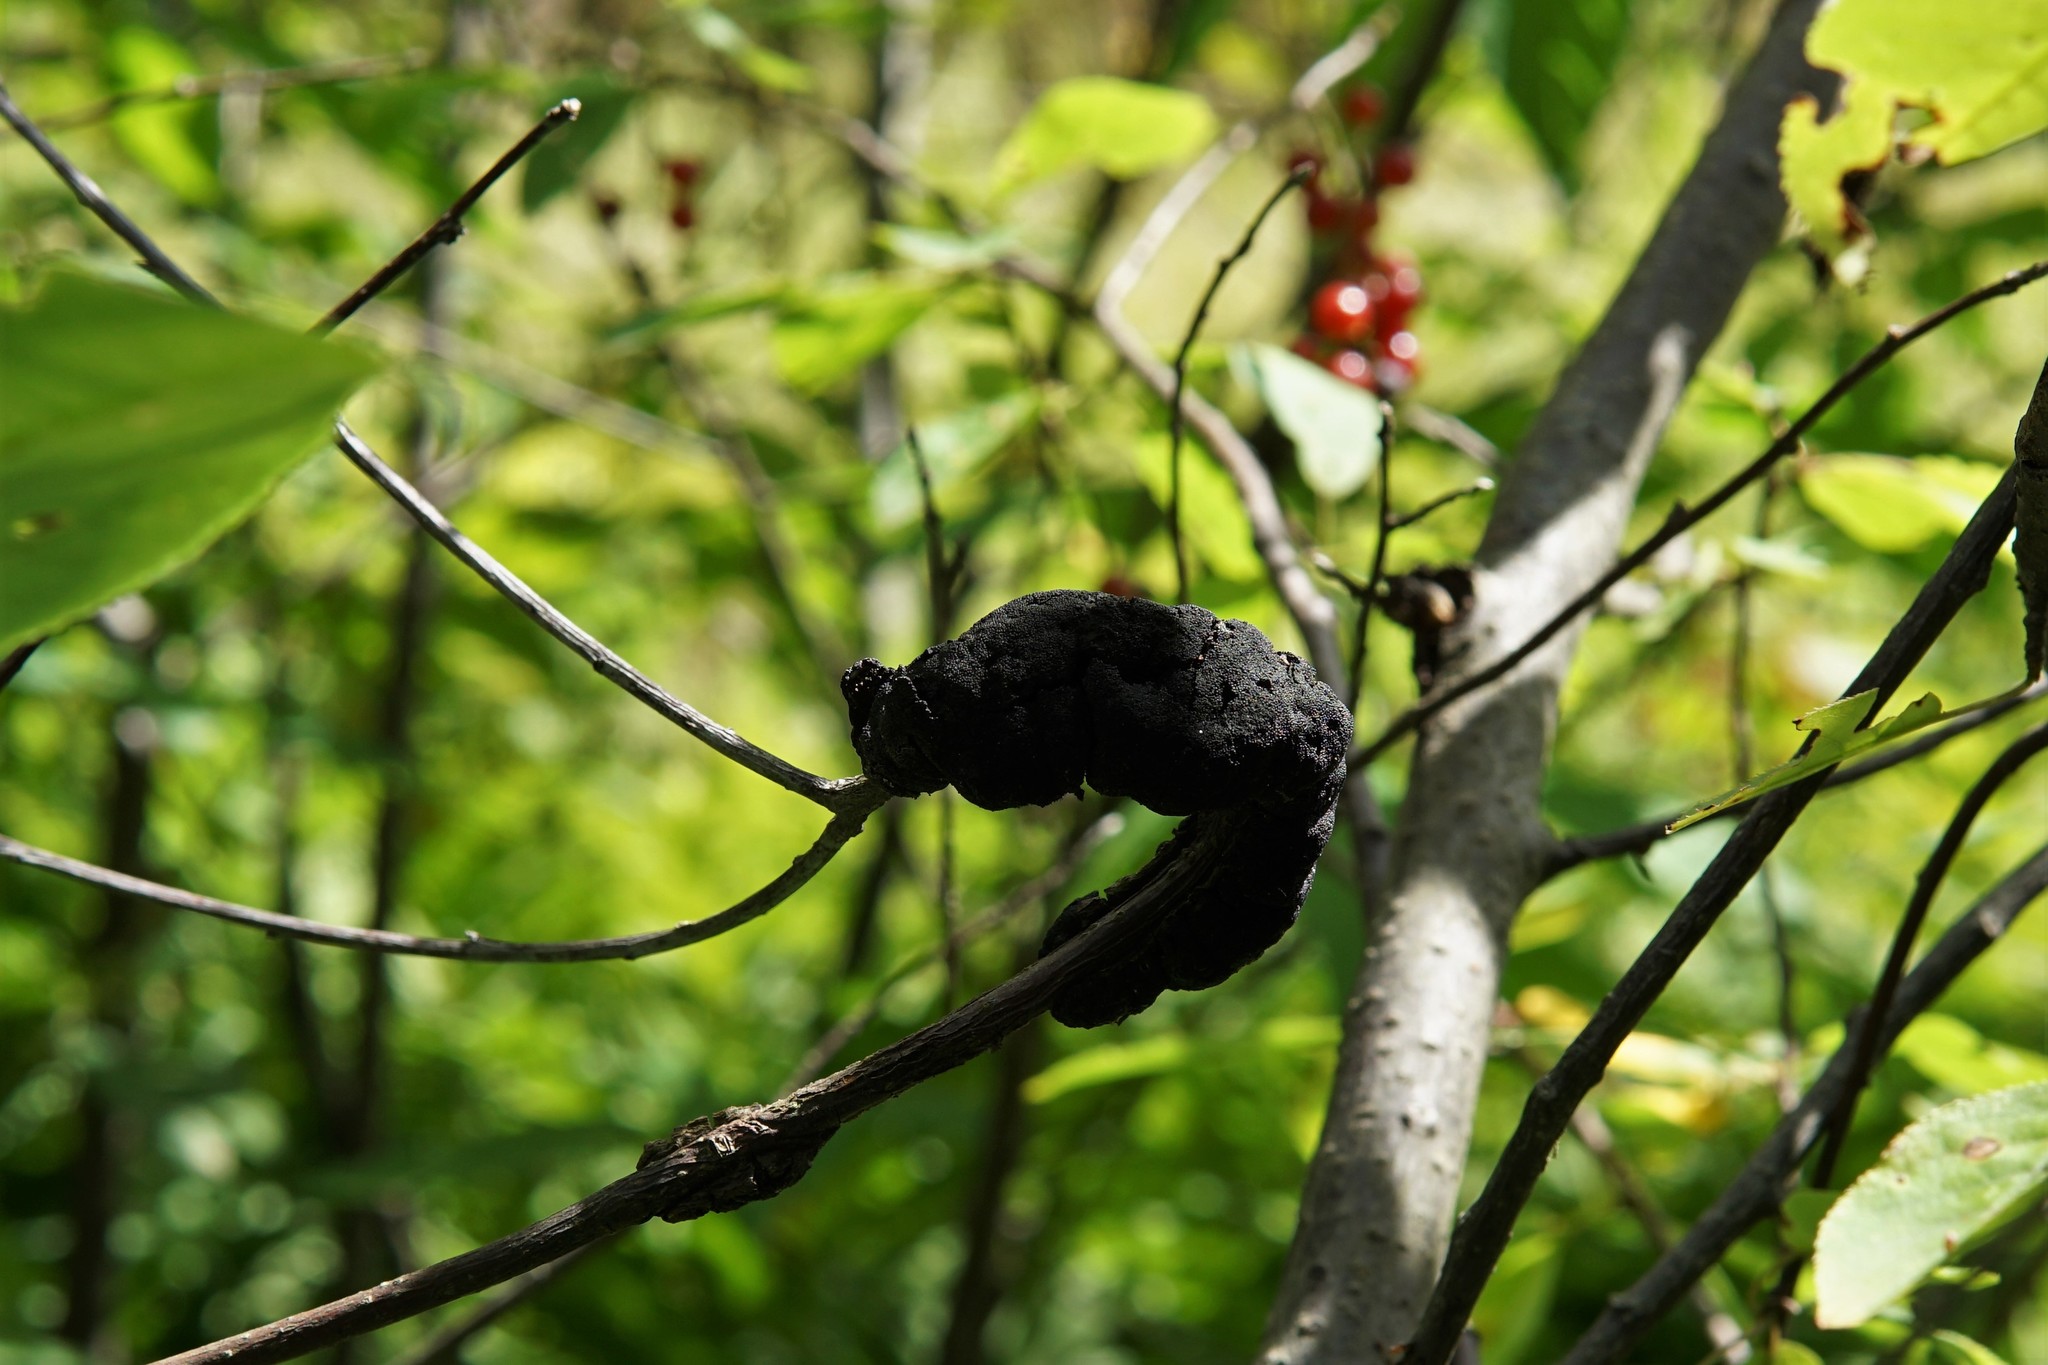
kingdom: Fungi
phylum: Ascomycota
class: Dothideomycetes
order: Venturiales
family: Venturiaceae
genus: Apiosporina
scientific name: Apiosporina morbosa
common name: Black knot
